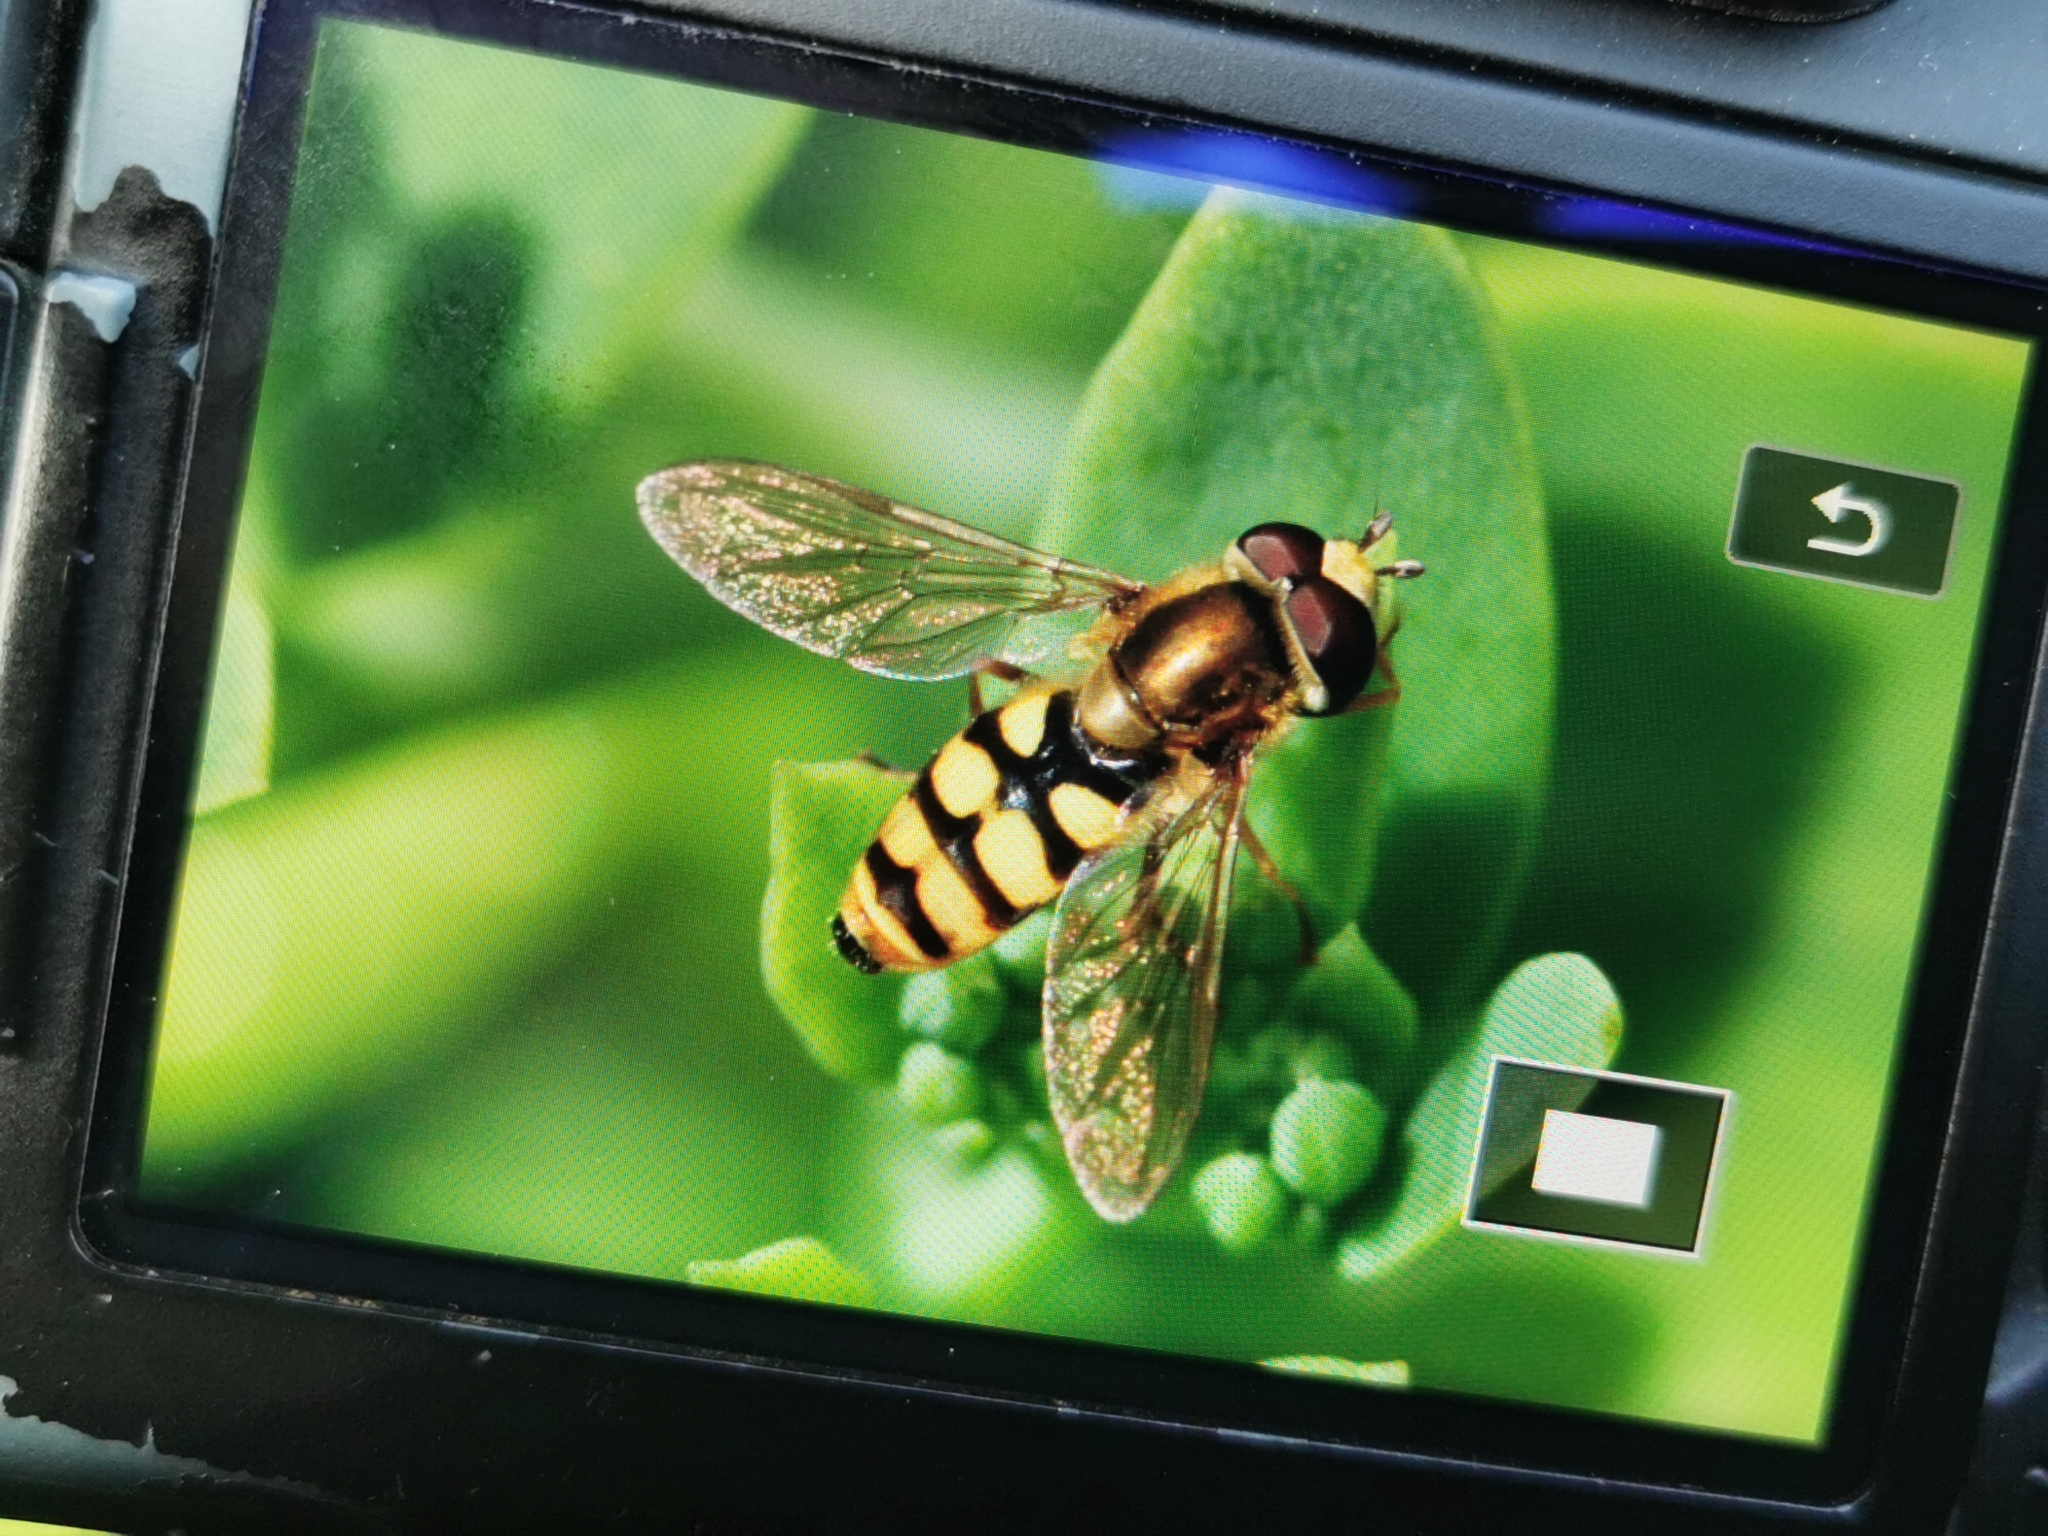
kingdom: Animalia
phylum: Arthropoda
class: Insecta
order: Diptera
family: Syrphidae
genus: Eupeodes
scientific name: Eupeodes corollae
